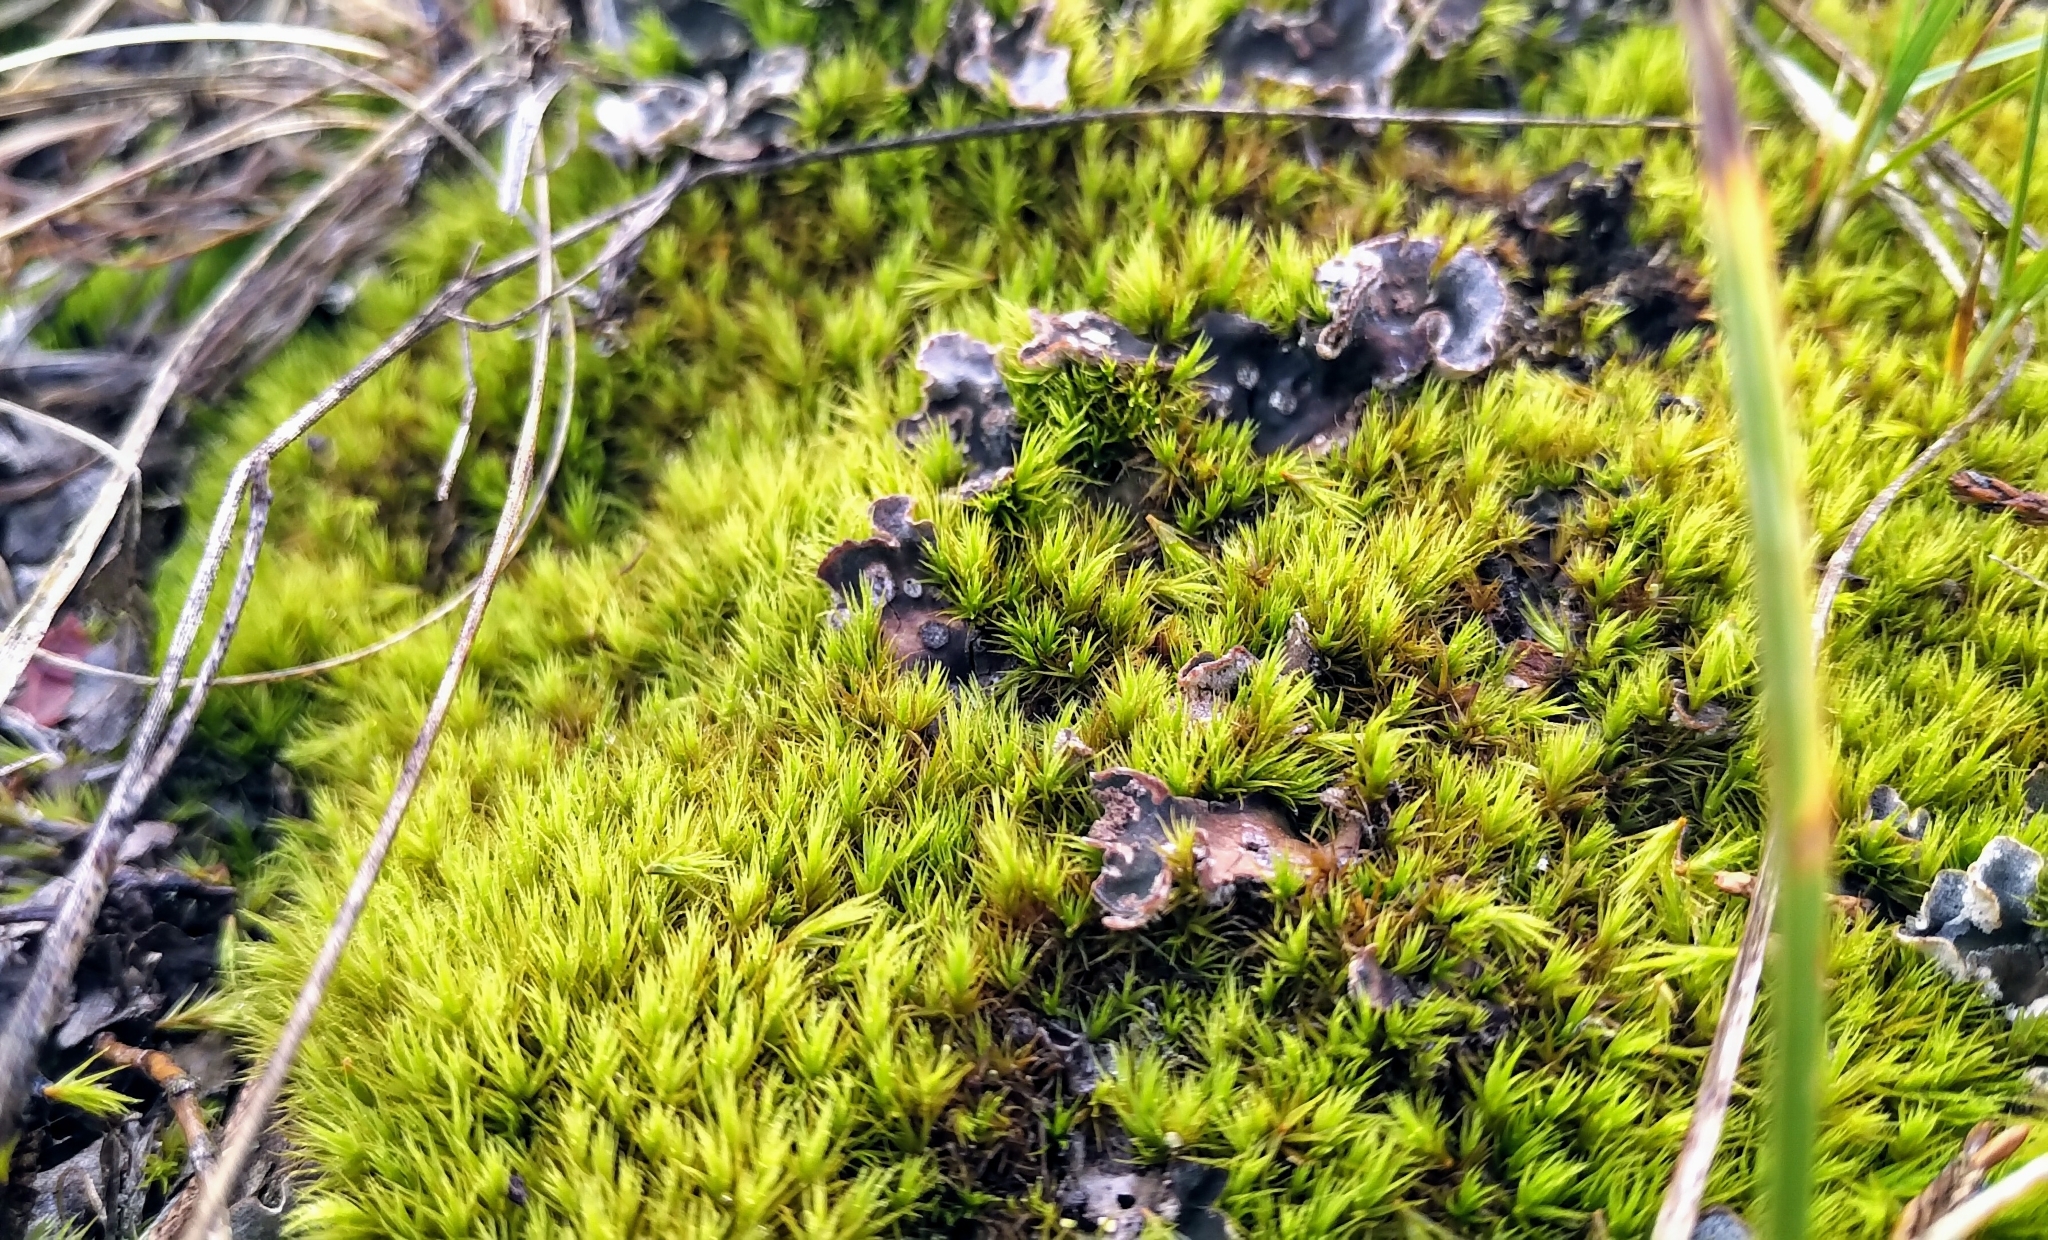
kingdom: Fungi
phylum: Ascomycota
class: Lecanoromycetes
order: Peltigerales
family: Peltigeraceae
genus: Peltigera
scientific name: Peltigera didactyla
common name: Alternating dog lichen
